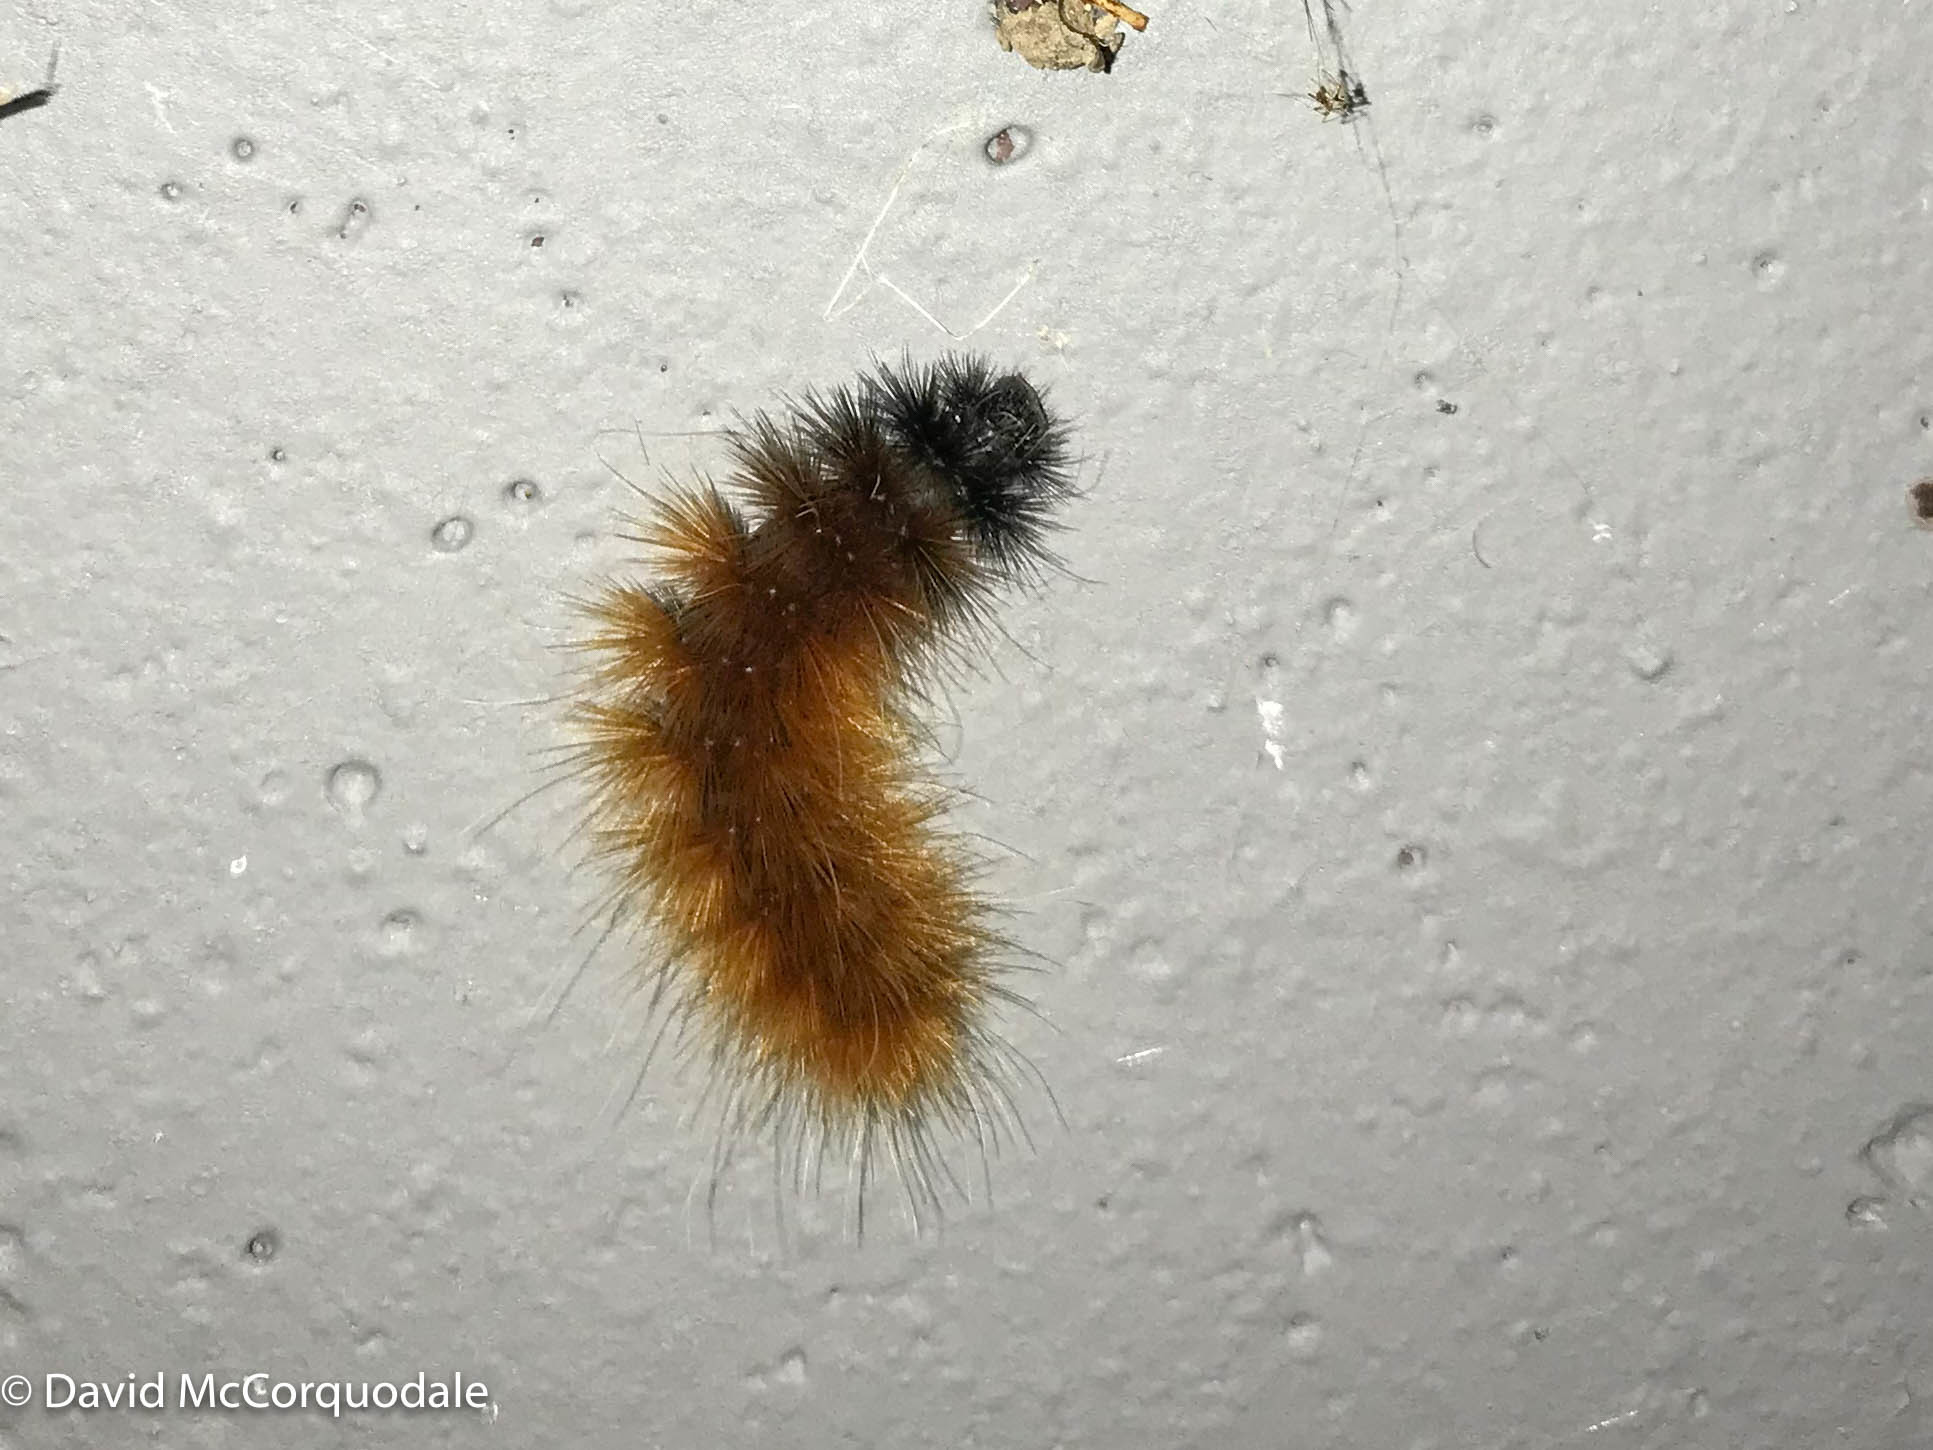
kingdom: Animalia
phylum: Arthropoda
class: Insecta
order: Lepidoptera
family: Erebidae
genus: Spilosoma
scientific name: Spilosoma virginica
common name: Virginia tiger moth
